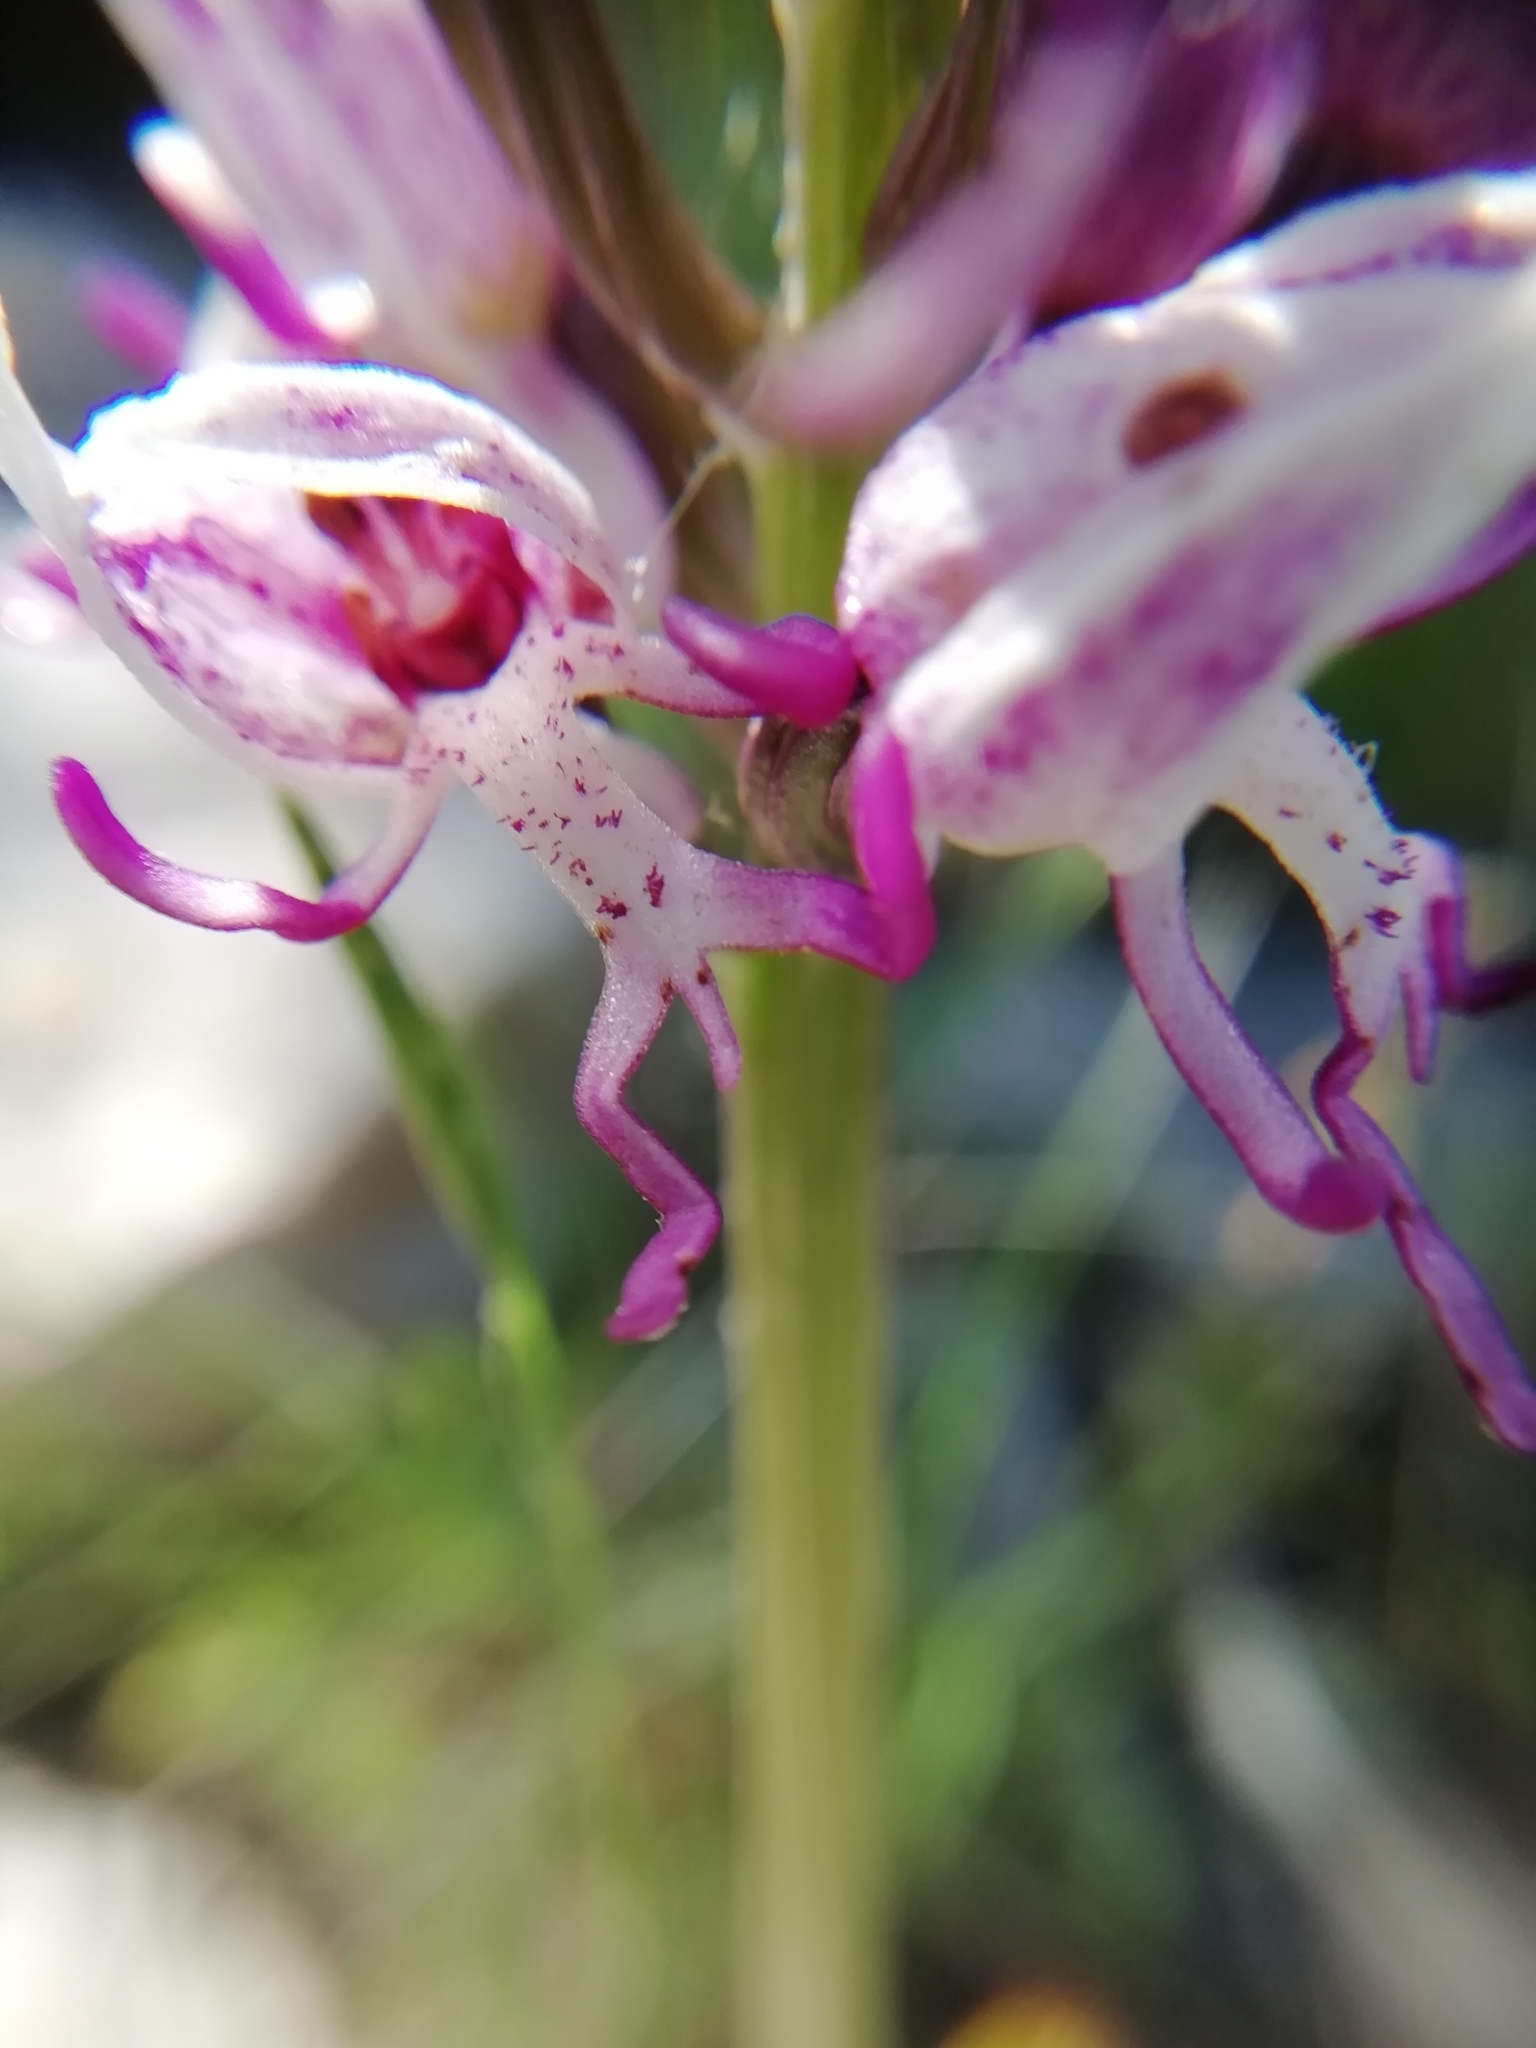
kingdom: Plantae
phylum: Tracheophyta
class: Liliopsida
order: Asparagales
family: Orchidaceae
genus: Orchis
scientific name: Orchis simia
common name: Monkey orchid
